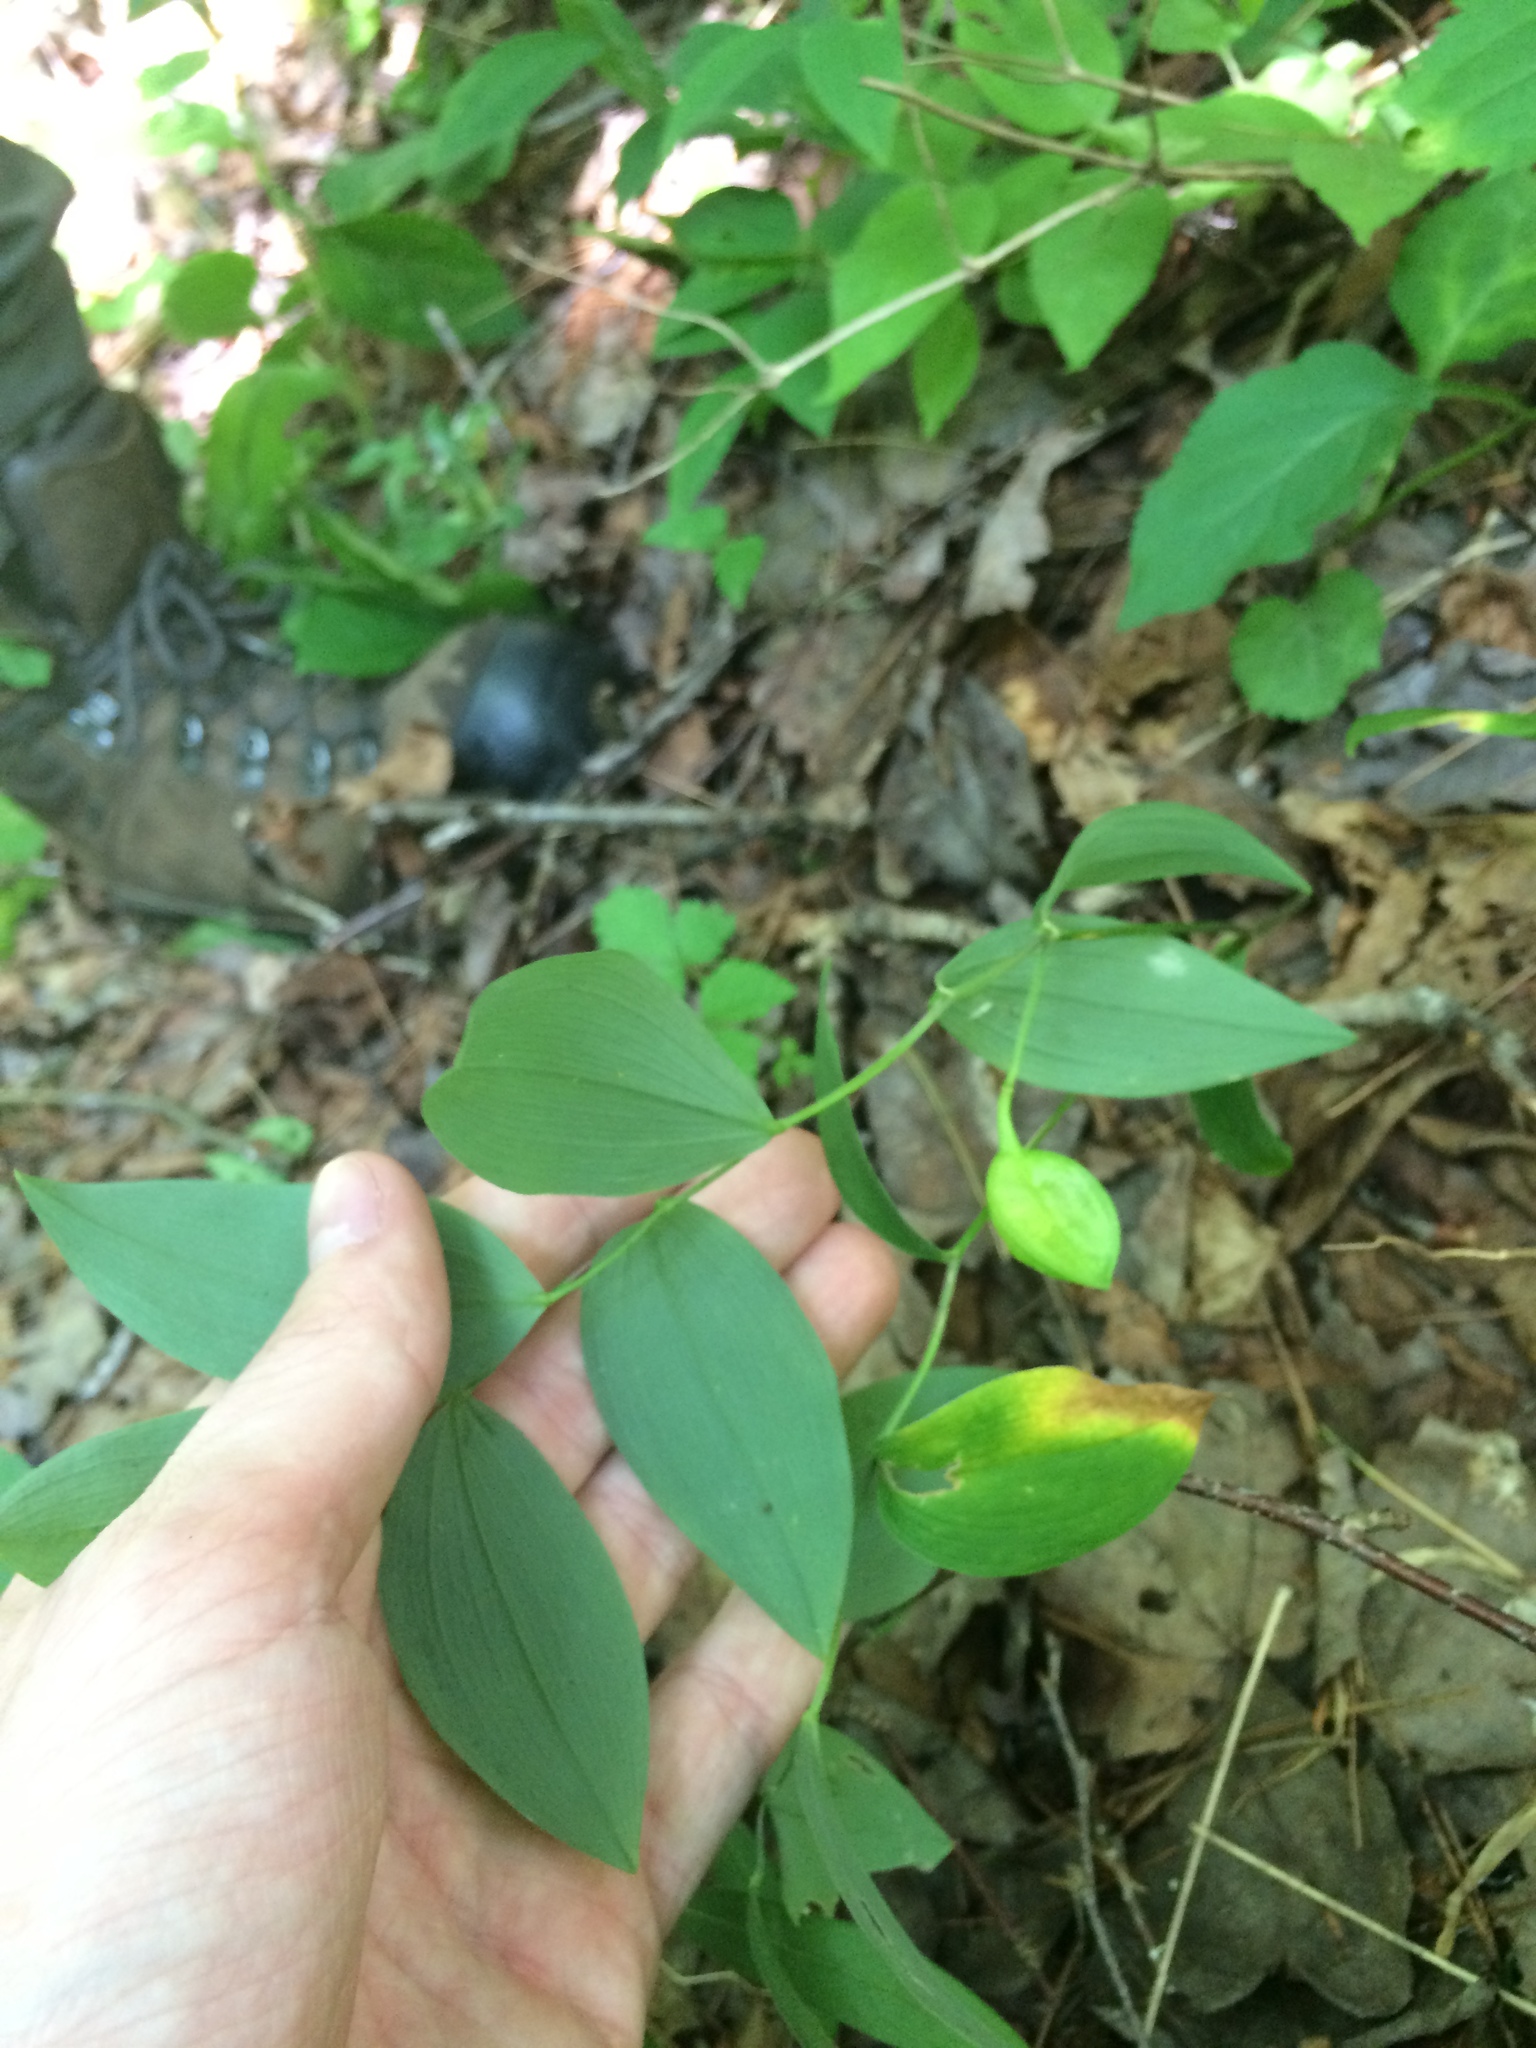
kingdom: Plantae
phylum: Tracheophyta
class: Liliopsida
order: Liliales
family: Colchicaceae
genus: Uvularia
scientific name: Uvularia sessilifolia
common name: Straw-lily
